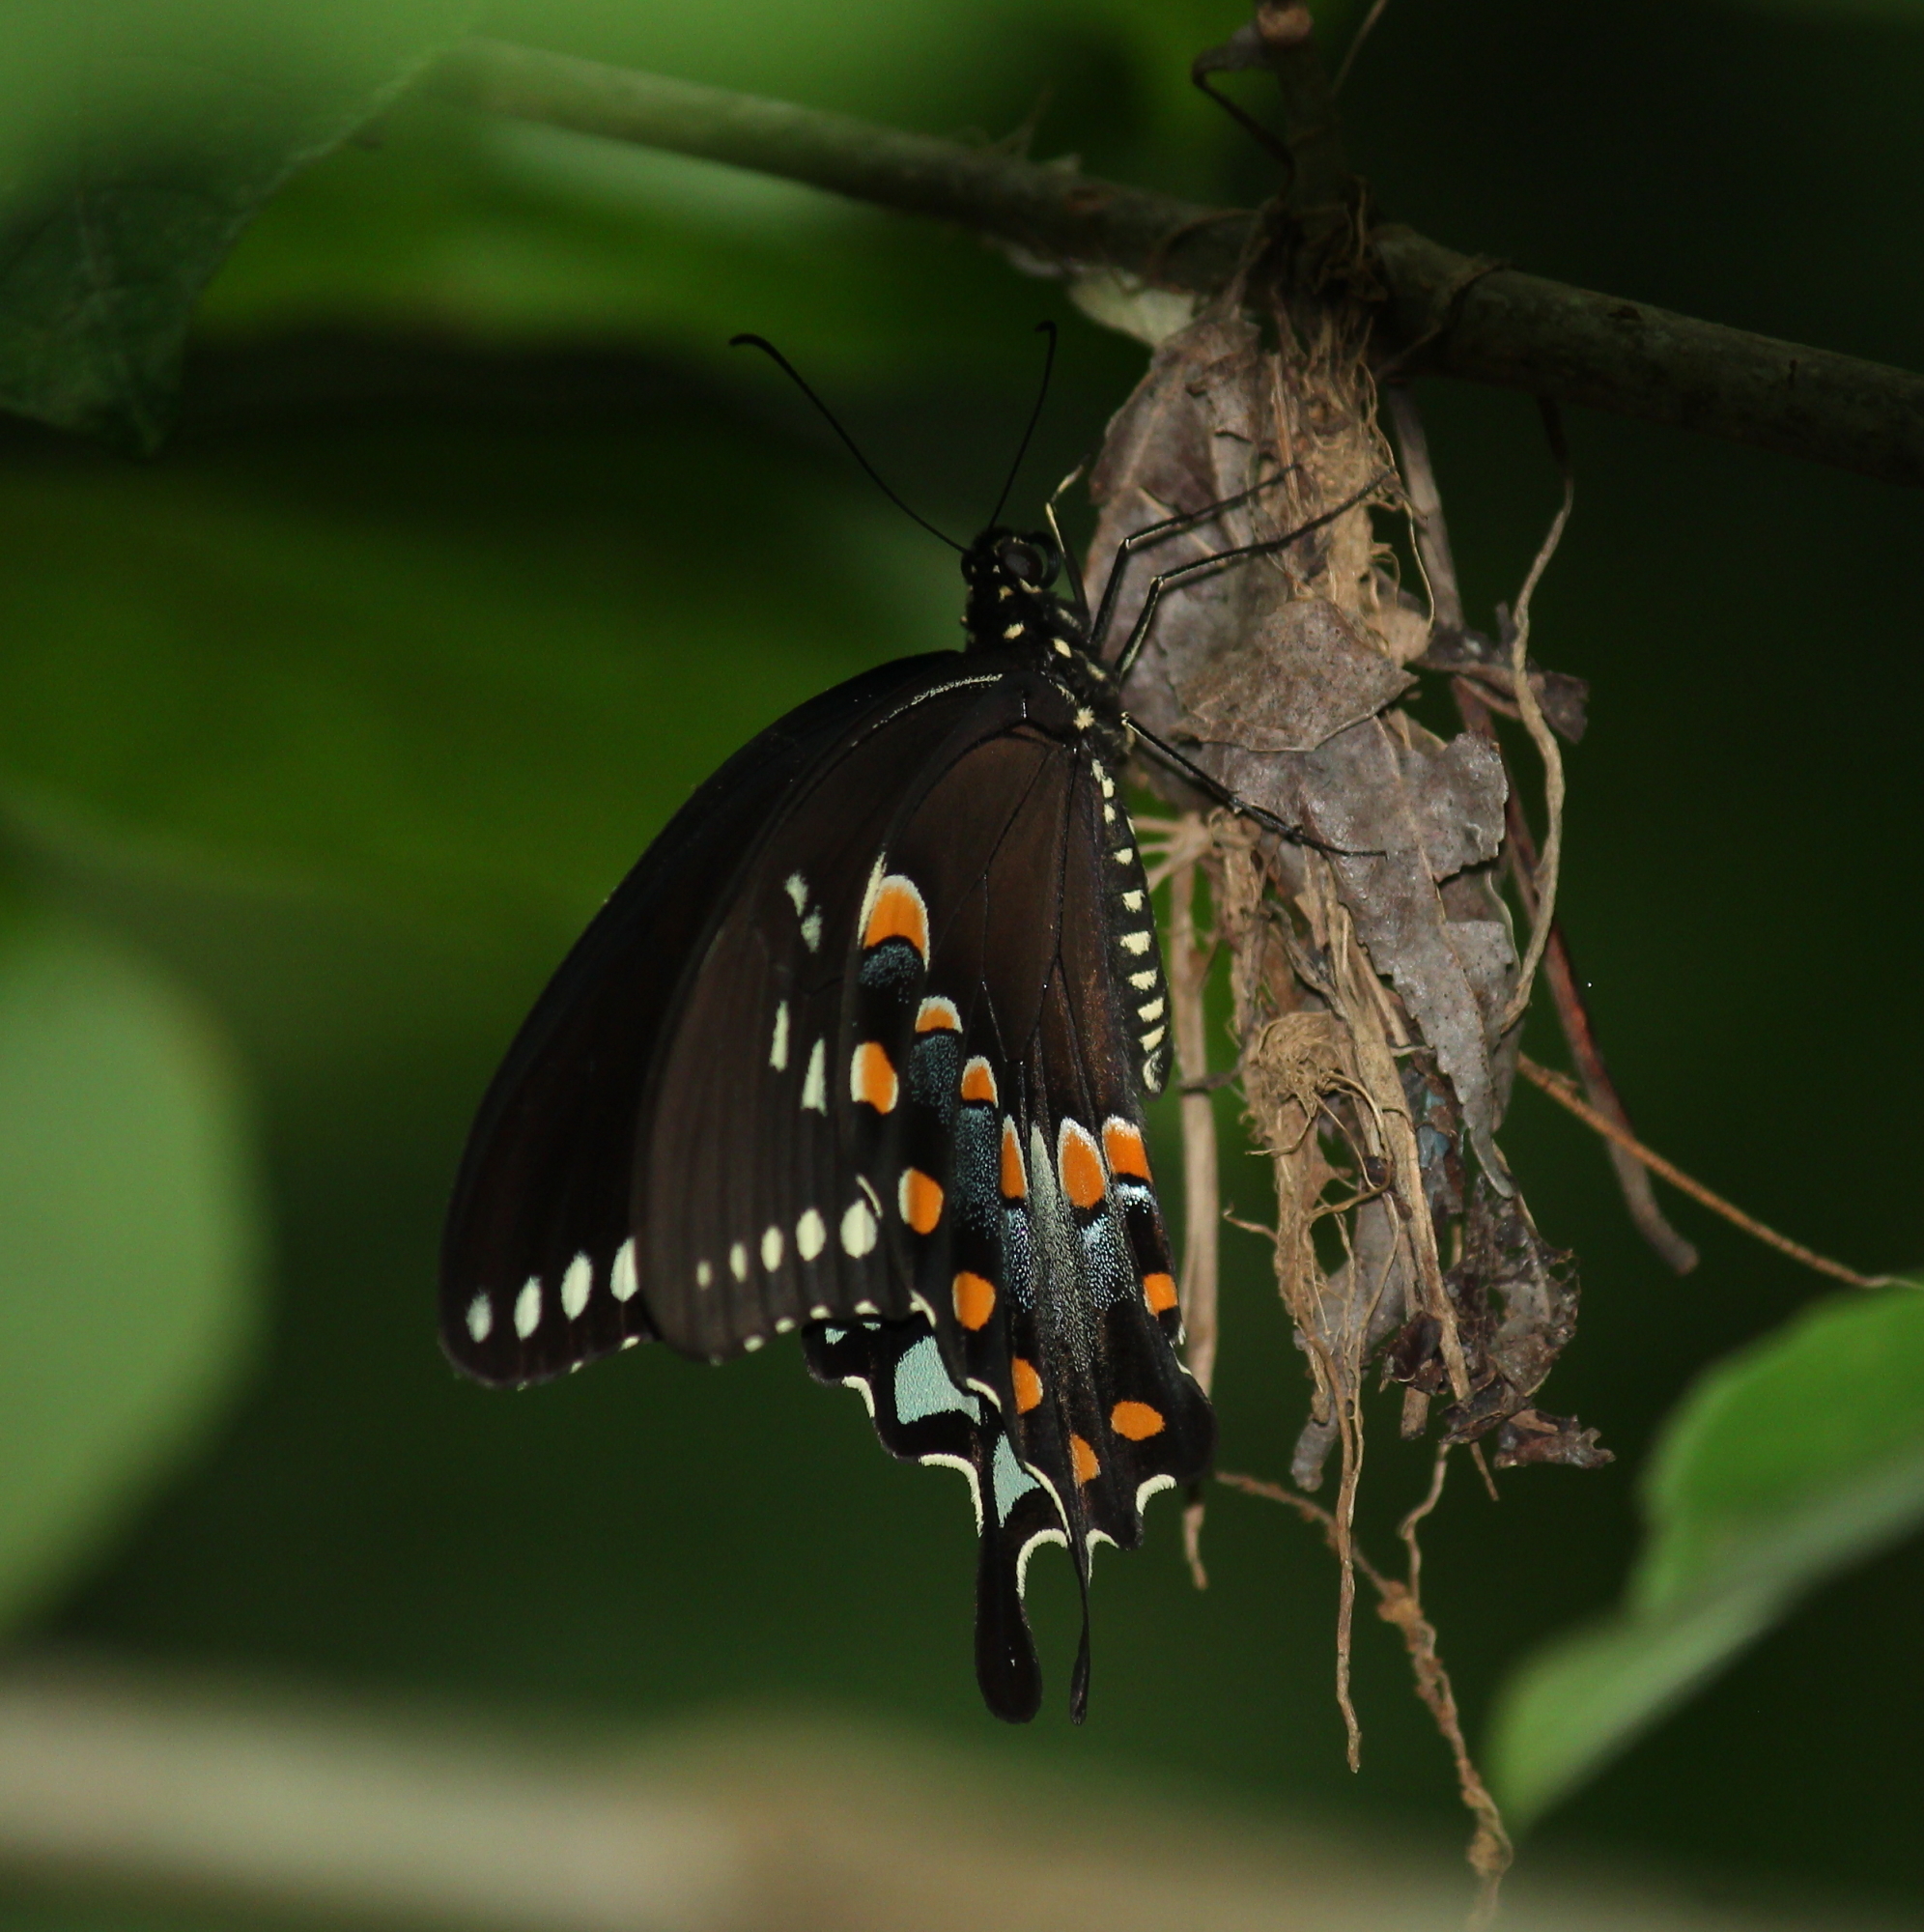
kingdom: Animalia
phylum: Arthropoda
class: Insecta
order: Lepidoptera
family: Papilionidae
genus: Papilio
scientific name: Papilio troilus
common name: Spicebush swallowtail
